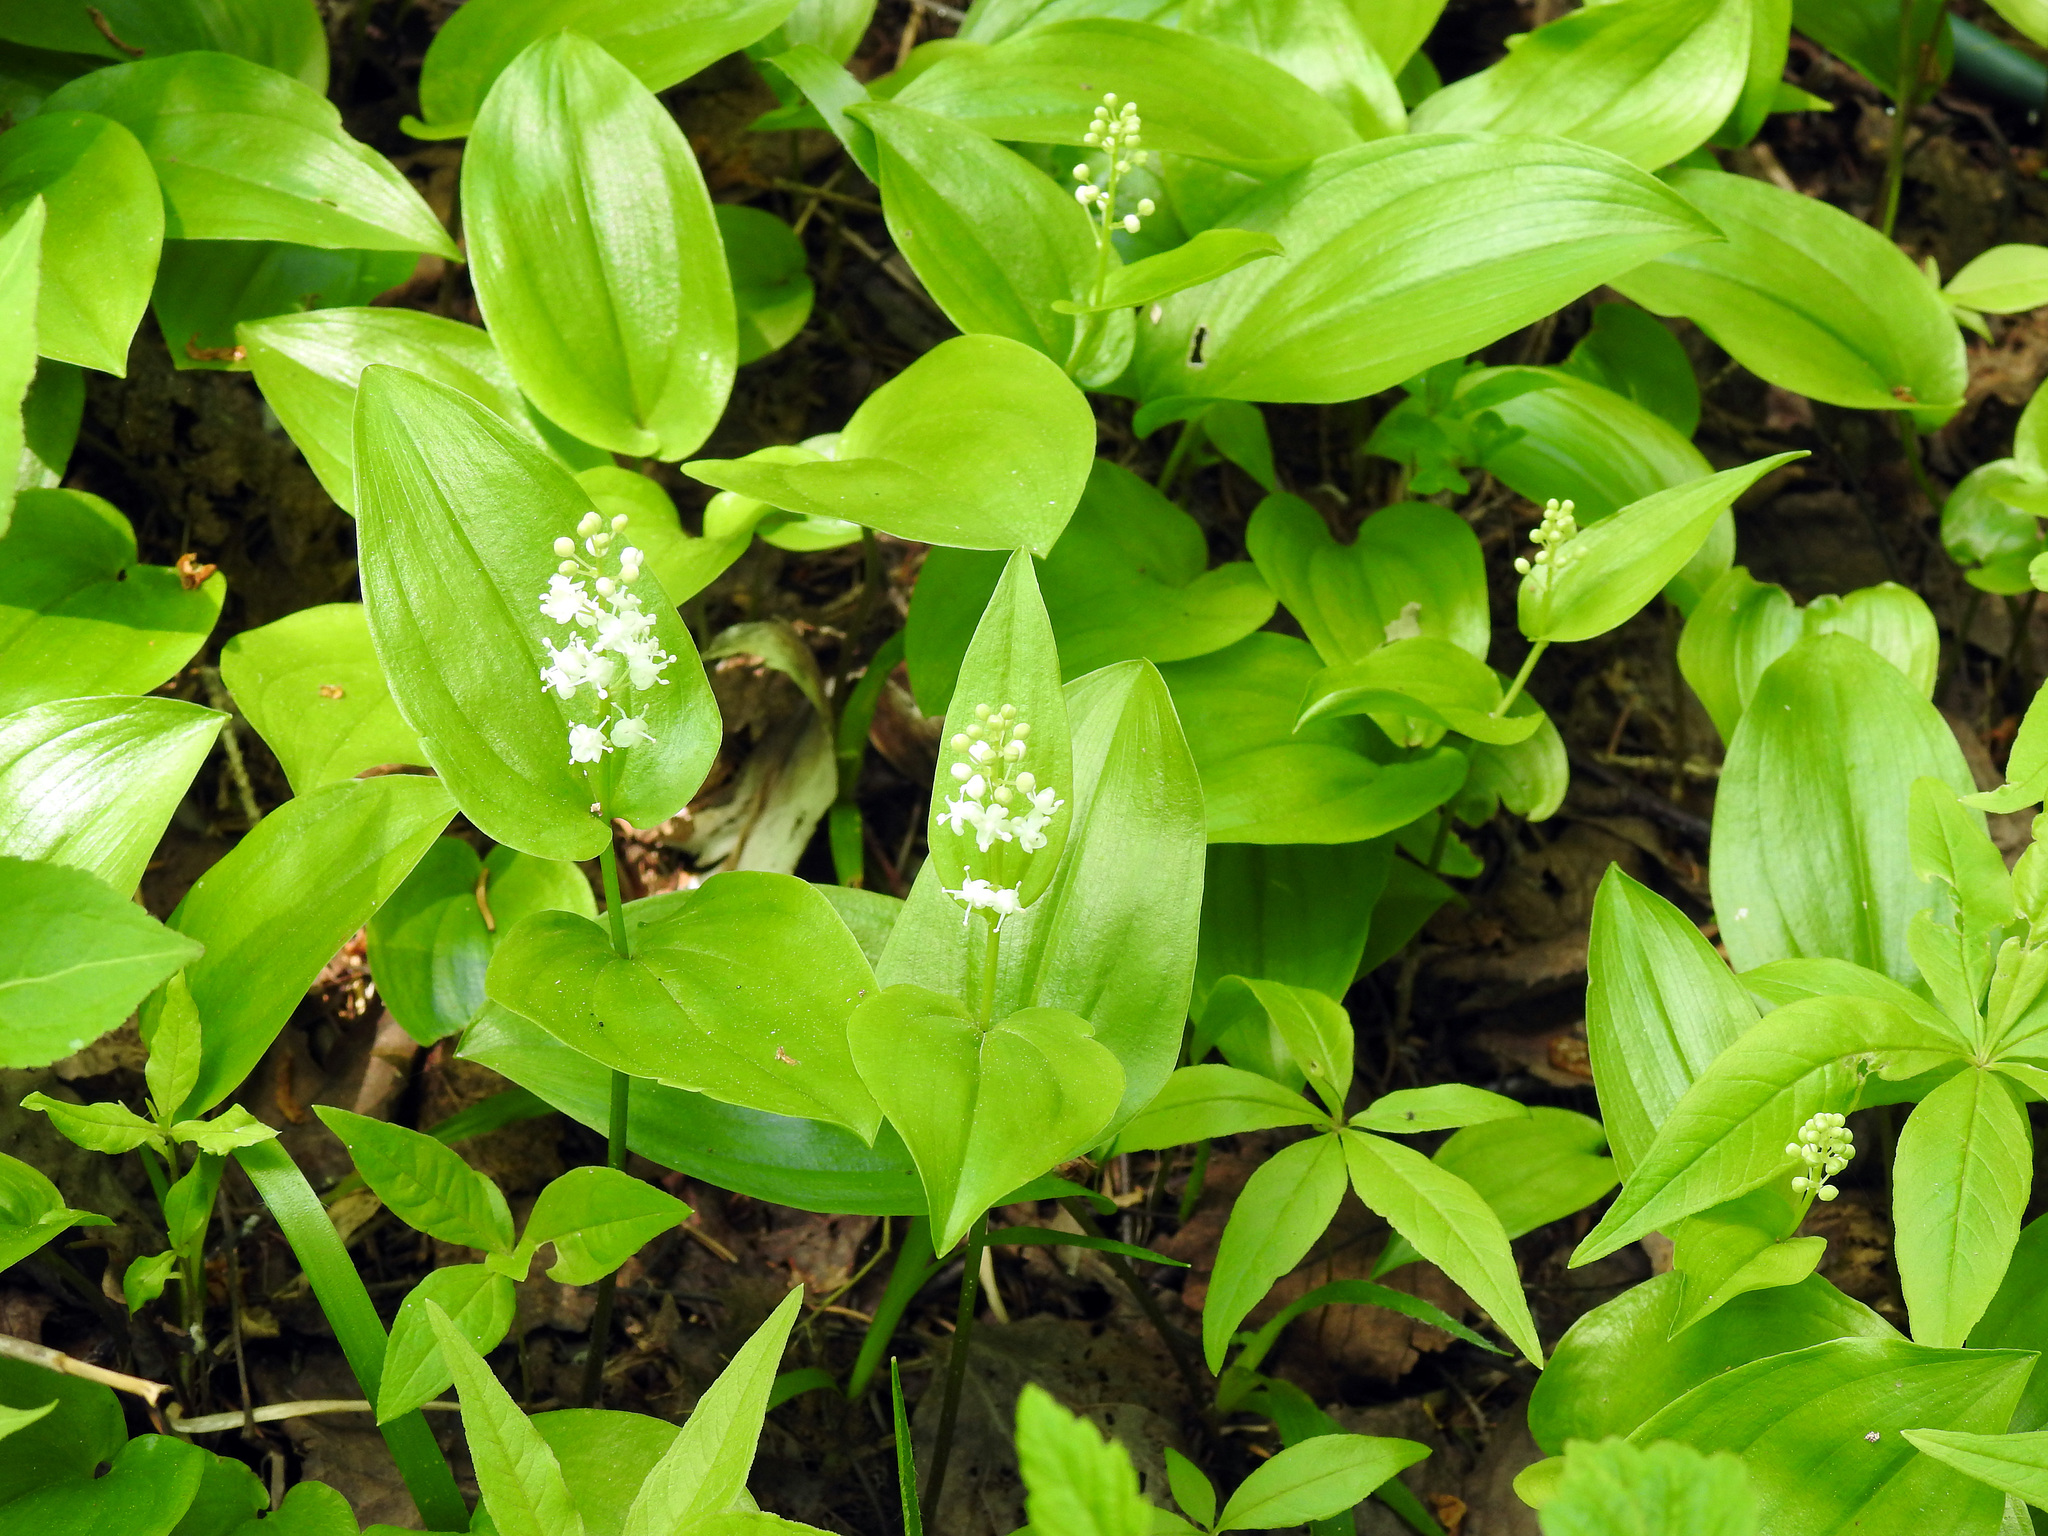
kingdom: Plantae
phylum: Tracheophyta
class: Liliopsida
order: Asparagales
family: Asparagaceae
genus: Maianthemum
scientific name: Maianthemum canadense
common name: False lily-of-the-valley
